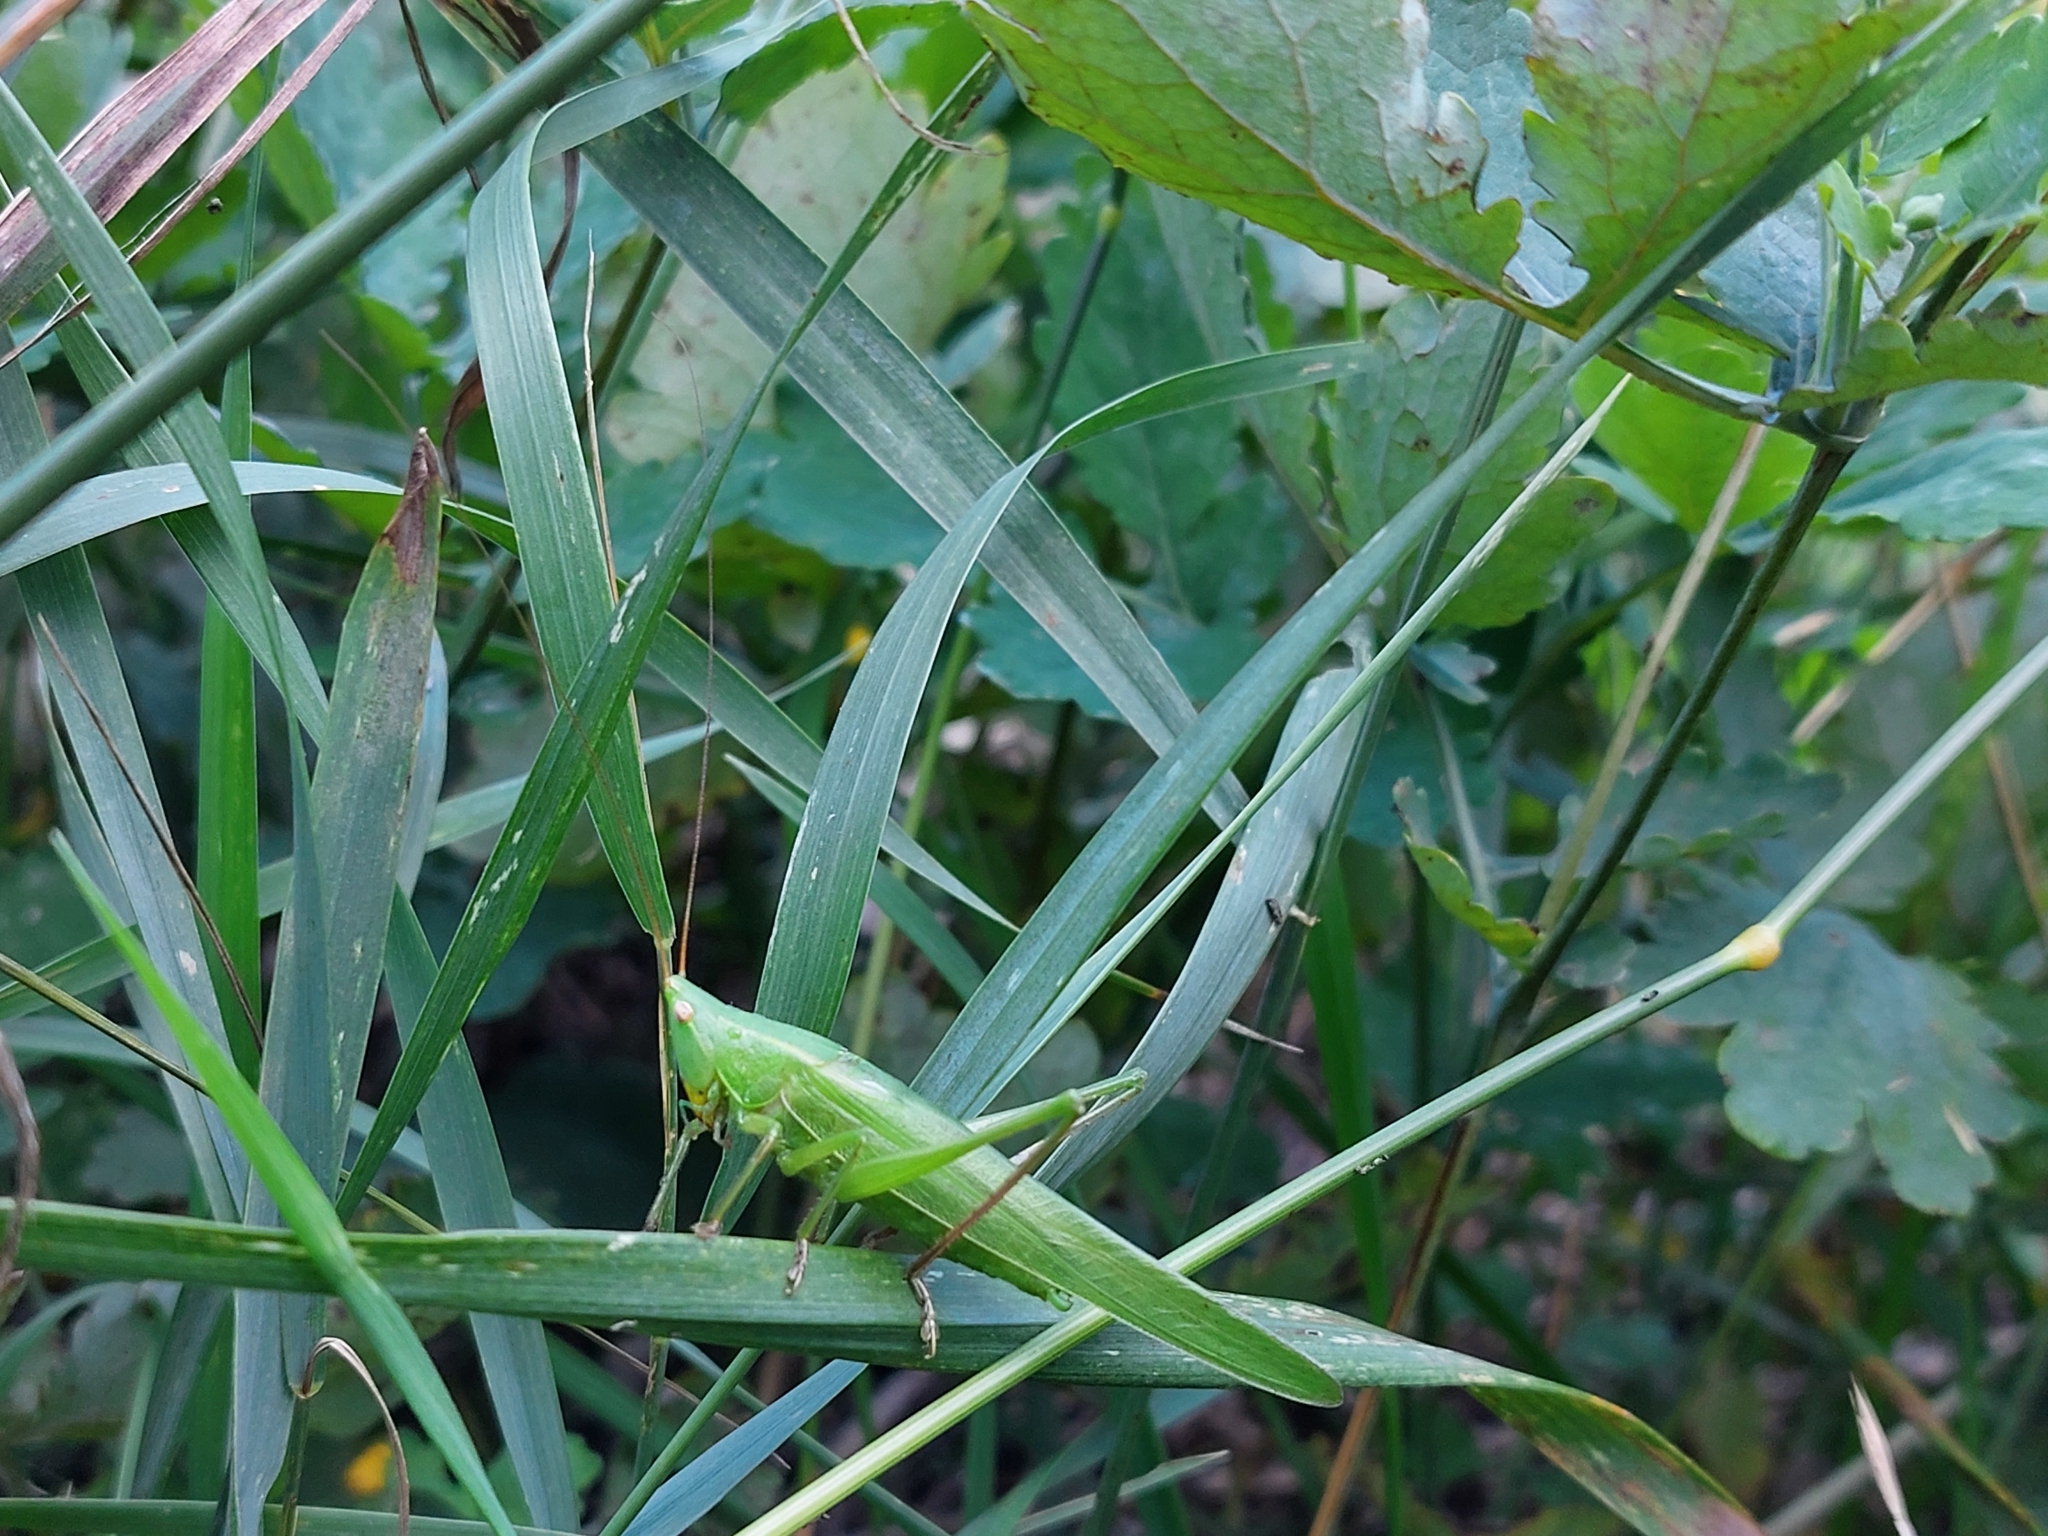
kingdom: Animalia
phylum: Arthropoda
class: Insecta
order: Orthoptera
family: Tettigoniidae
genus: Ruspolia
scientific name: Ruspolia nitidula
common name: Large conehead
